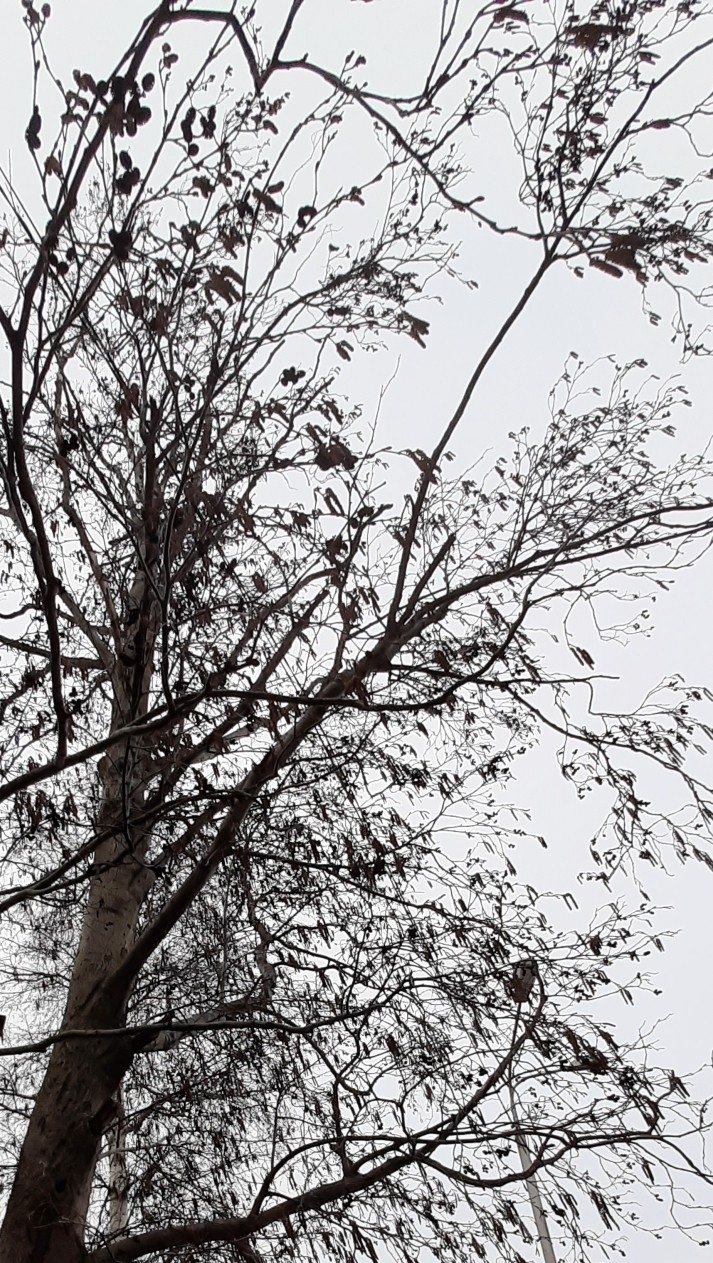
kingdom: Plantae
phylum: Tracheophyta
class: Magnoliopsida
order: Fagales
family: Betulaceae
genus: Alnus
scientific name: Alnus incana
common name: Grey alder
